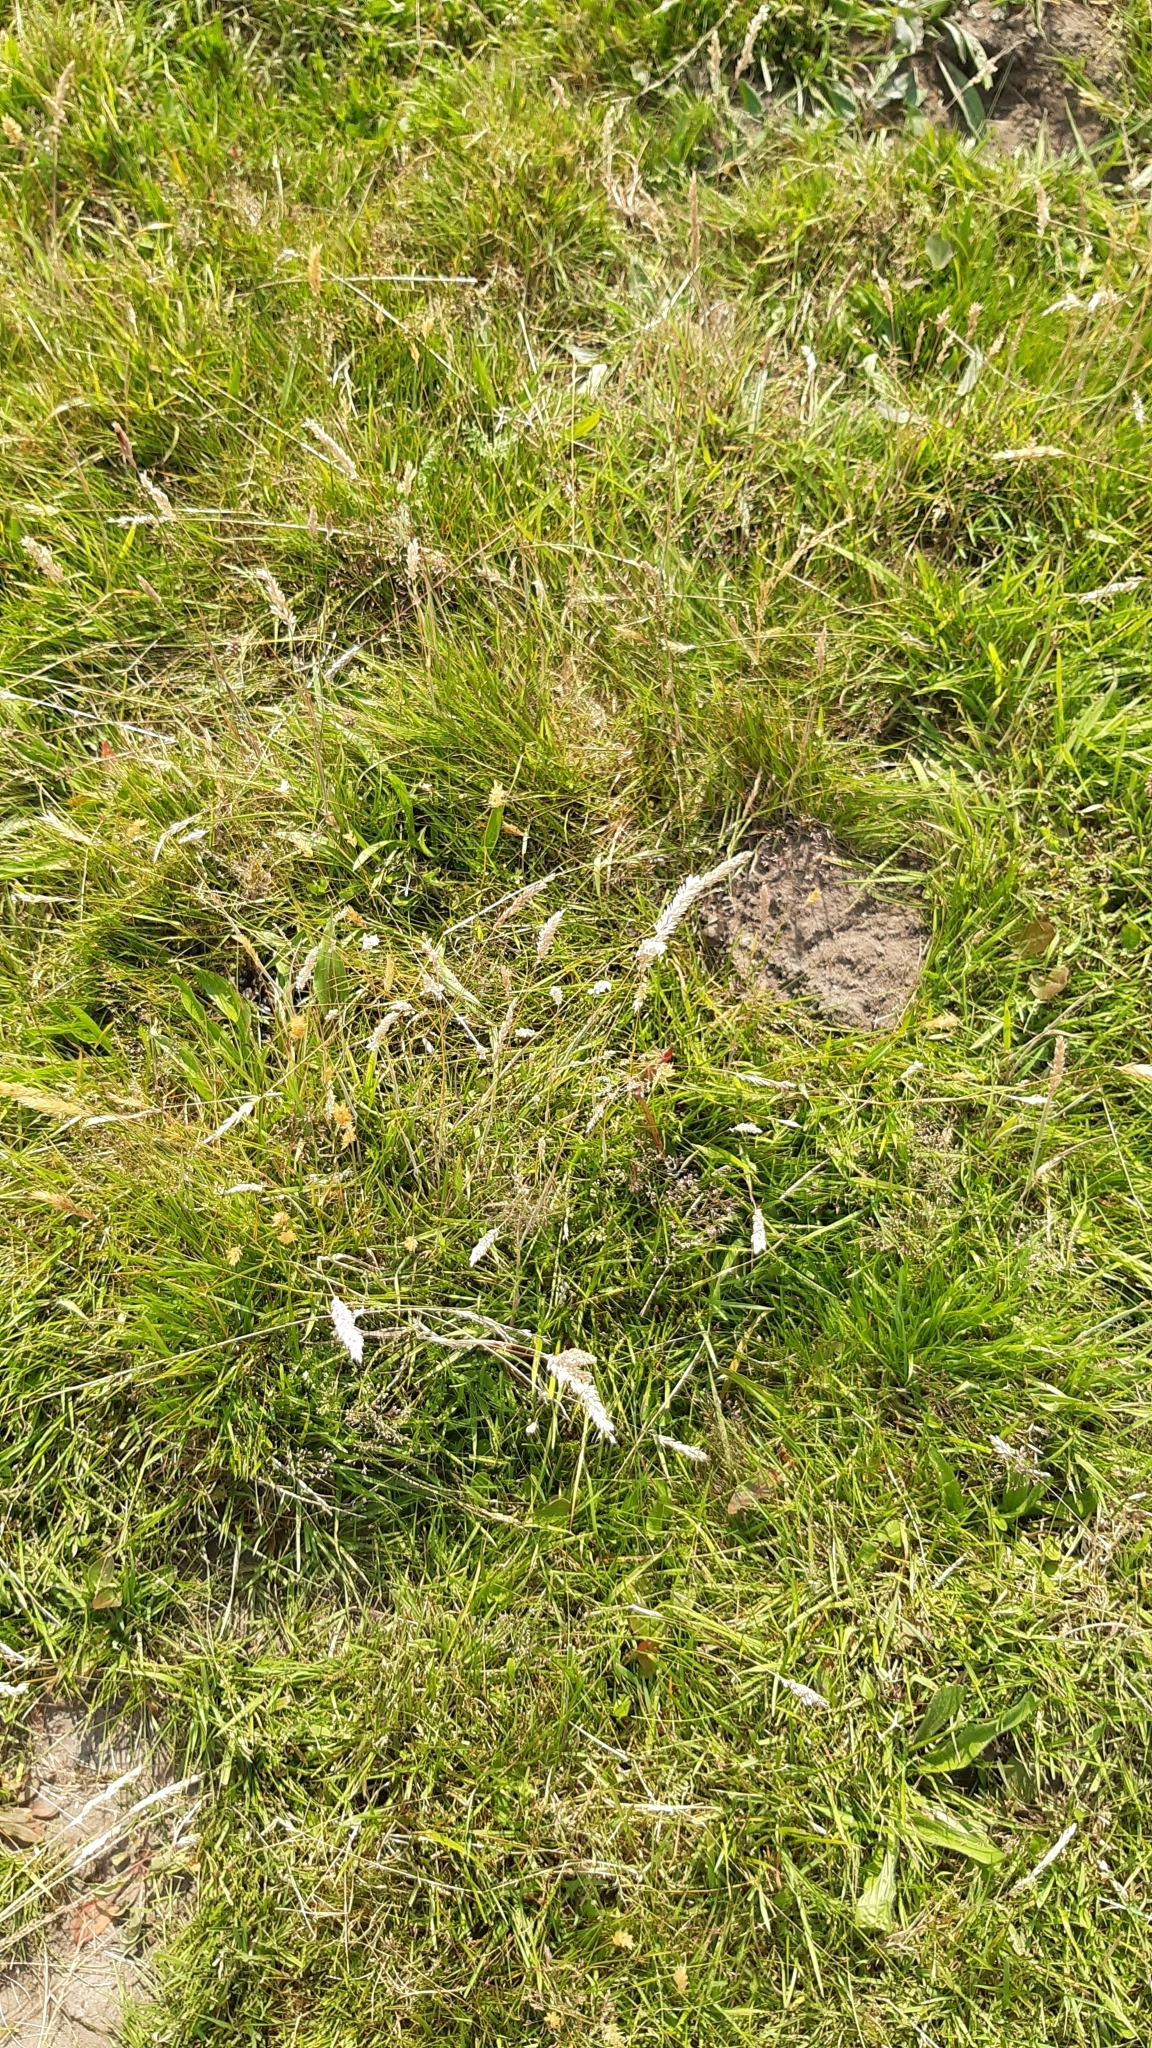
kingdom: Plantae
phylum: Tracheophyta
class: Liliopsida
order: Poales
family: Poaceae
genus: Holcus
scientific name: Holcus lanatus
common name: Yorkshire-fog
